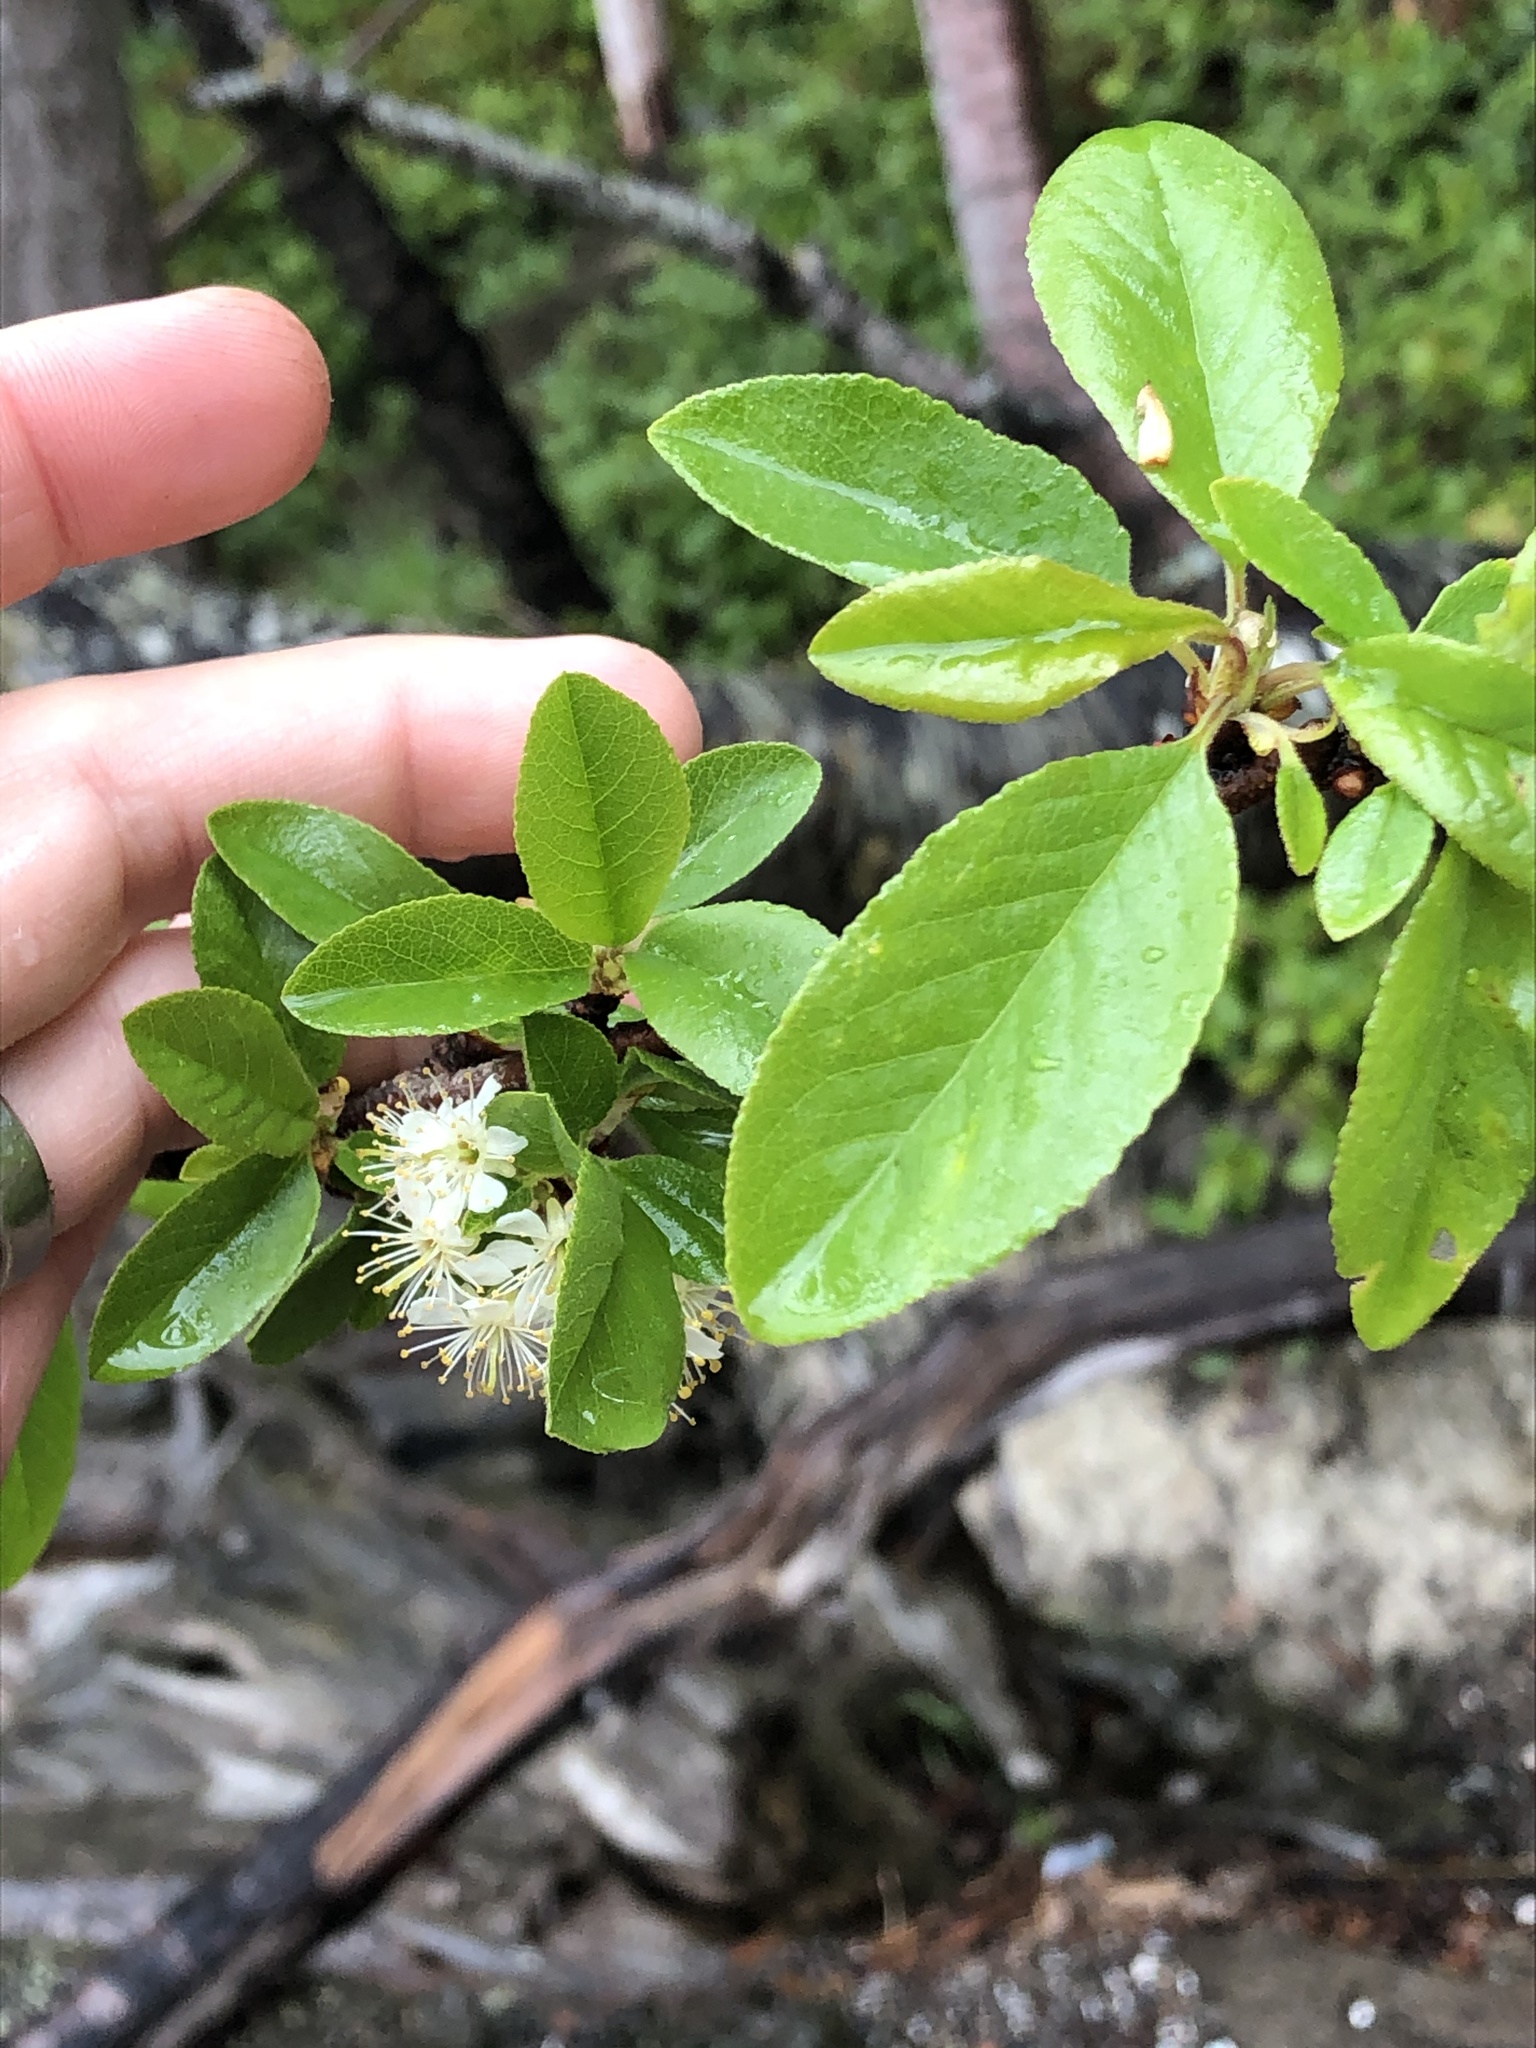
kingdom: Plantae
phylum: Tracheophyta
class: Magnoliopsida
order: Rosales
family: Rosaceae
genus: Prunus
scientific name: Prunus emarginata
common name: Bitter cherry
